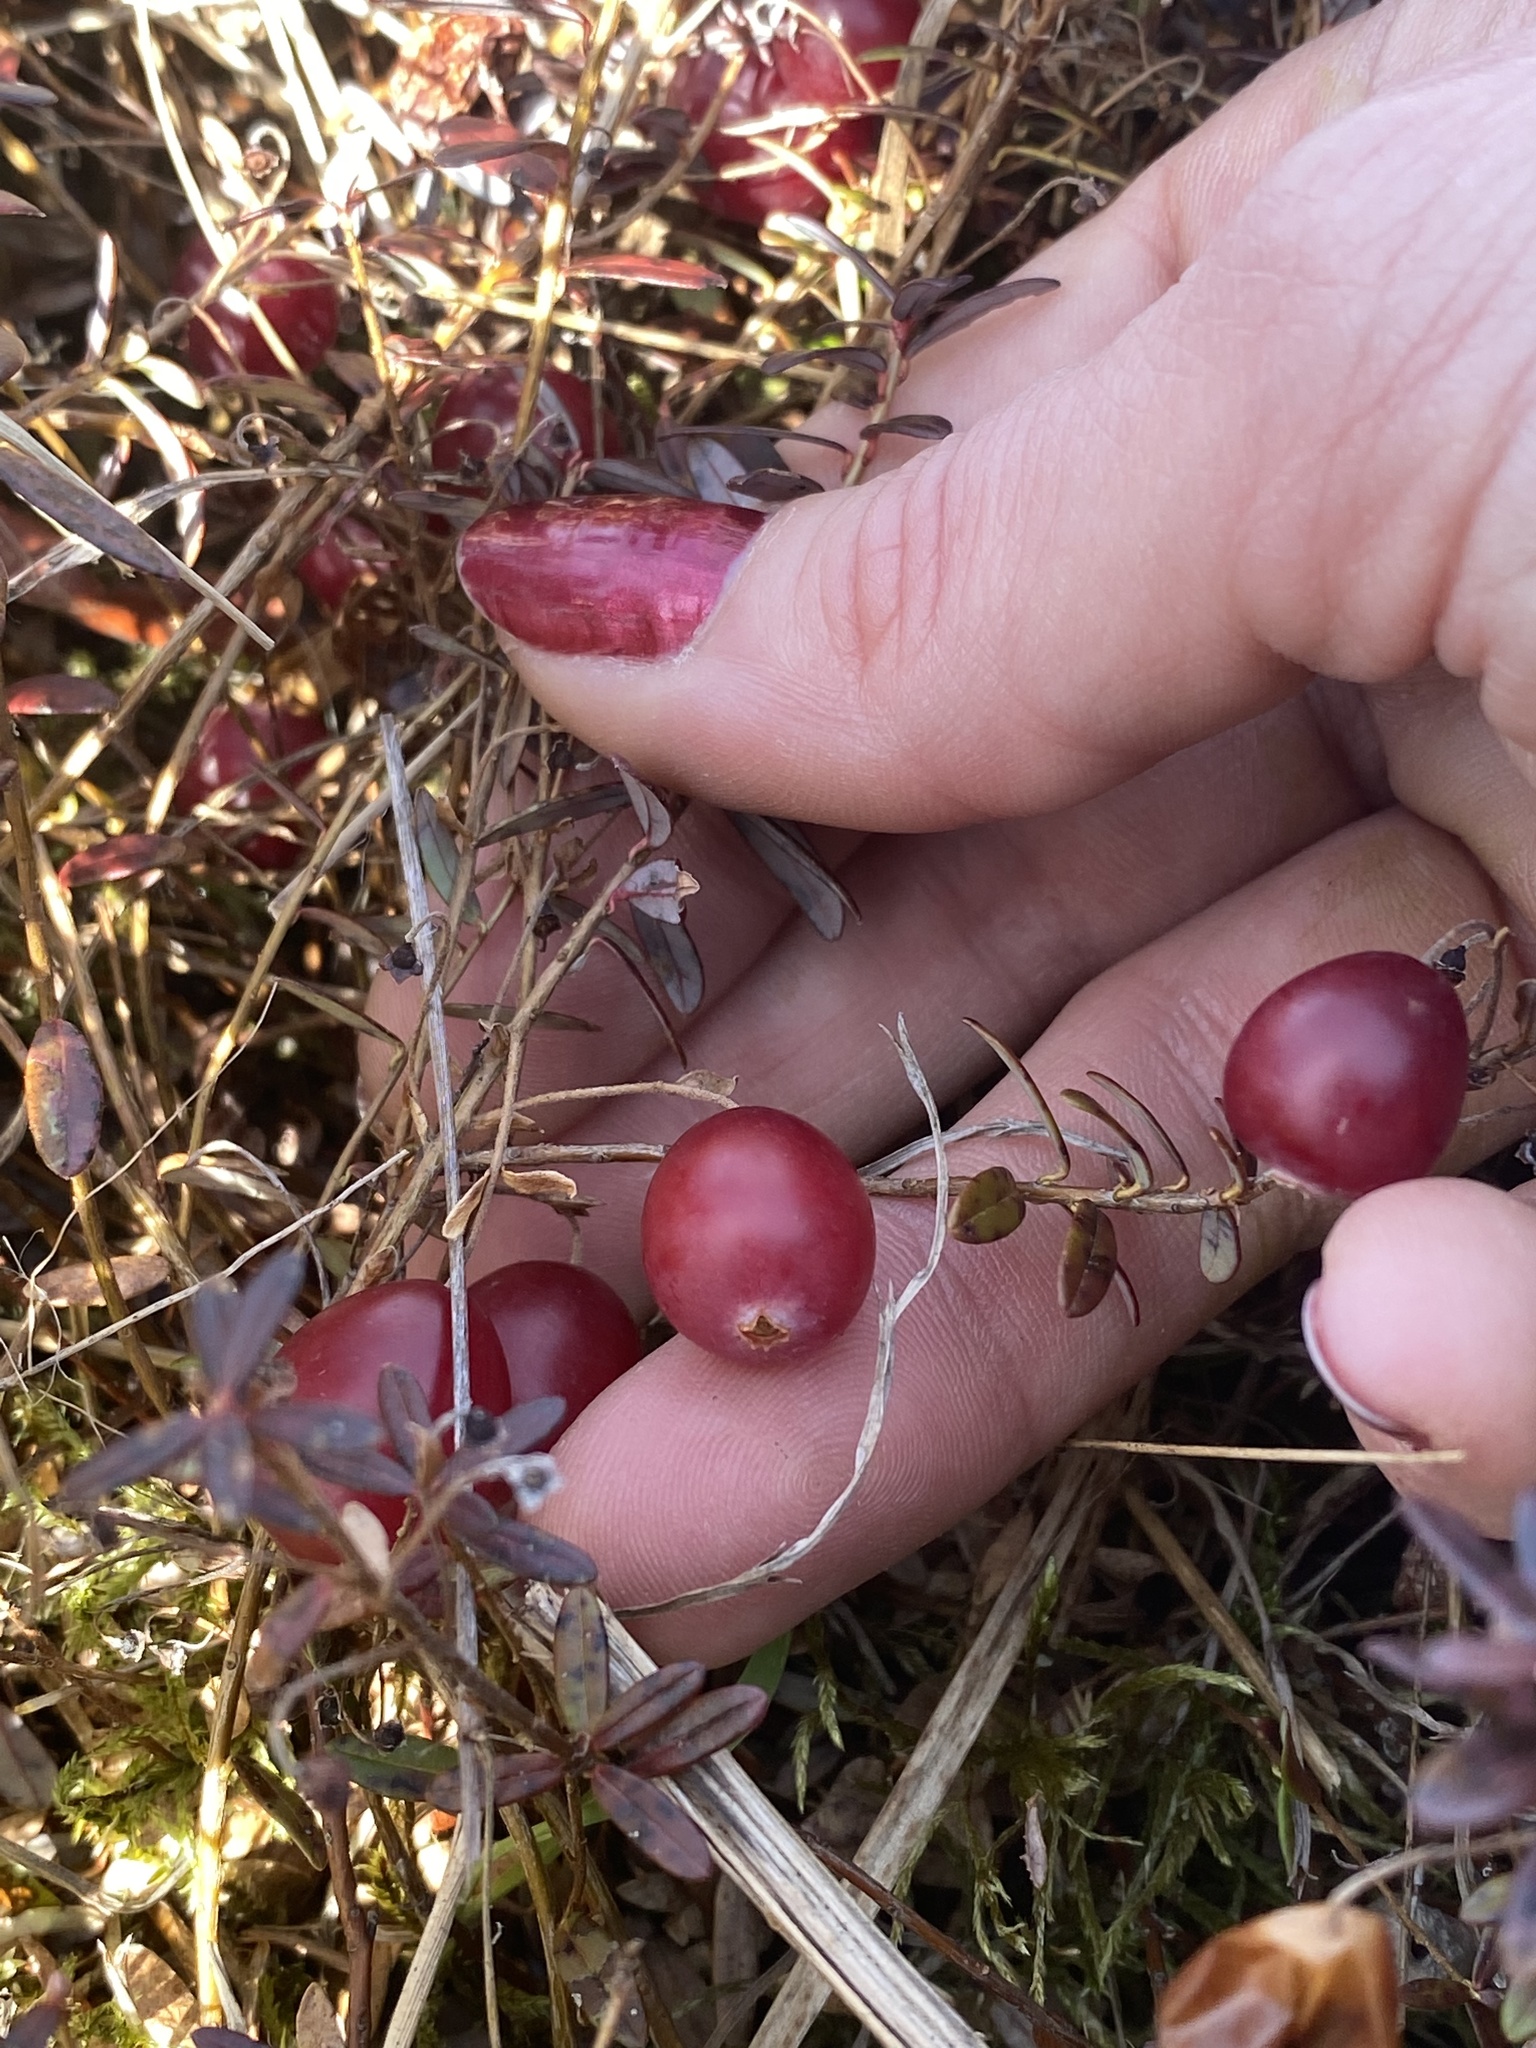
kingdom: Plantae
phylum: Tracheophyta
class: Magnoliopsida
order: Ericales
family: Ericaceae
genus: Vaccinium
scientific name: Vaccinium macrocarpon
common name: American cranberry
